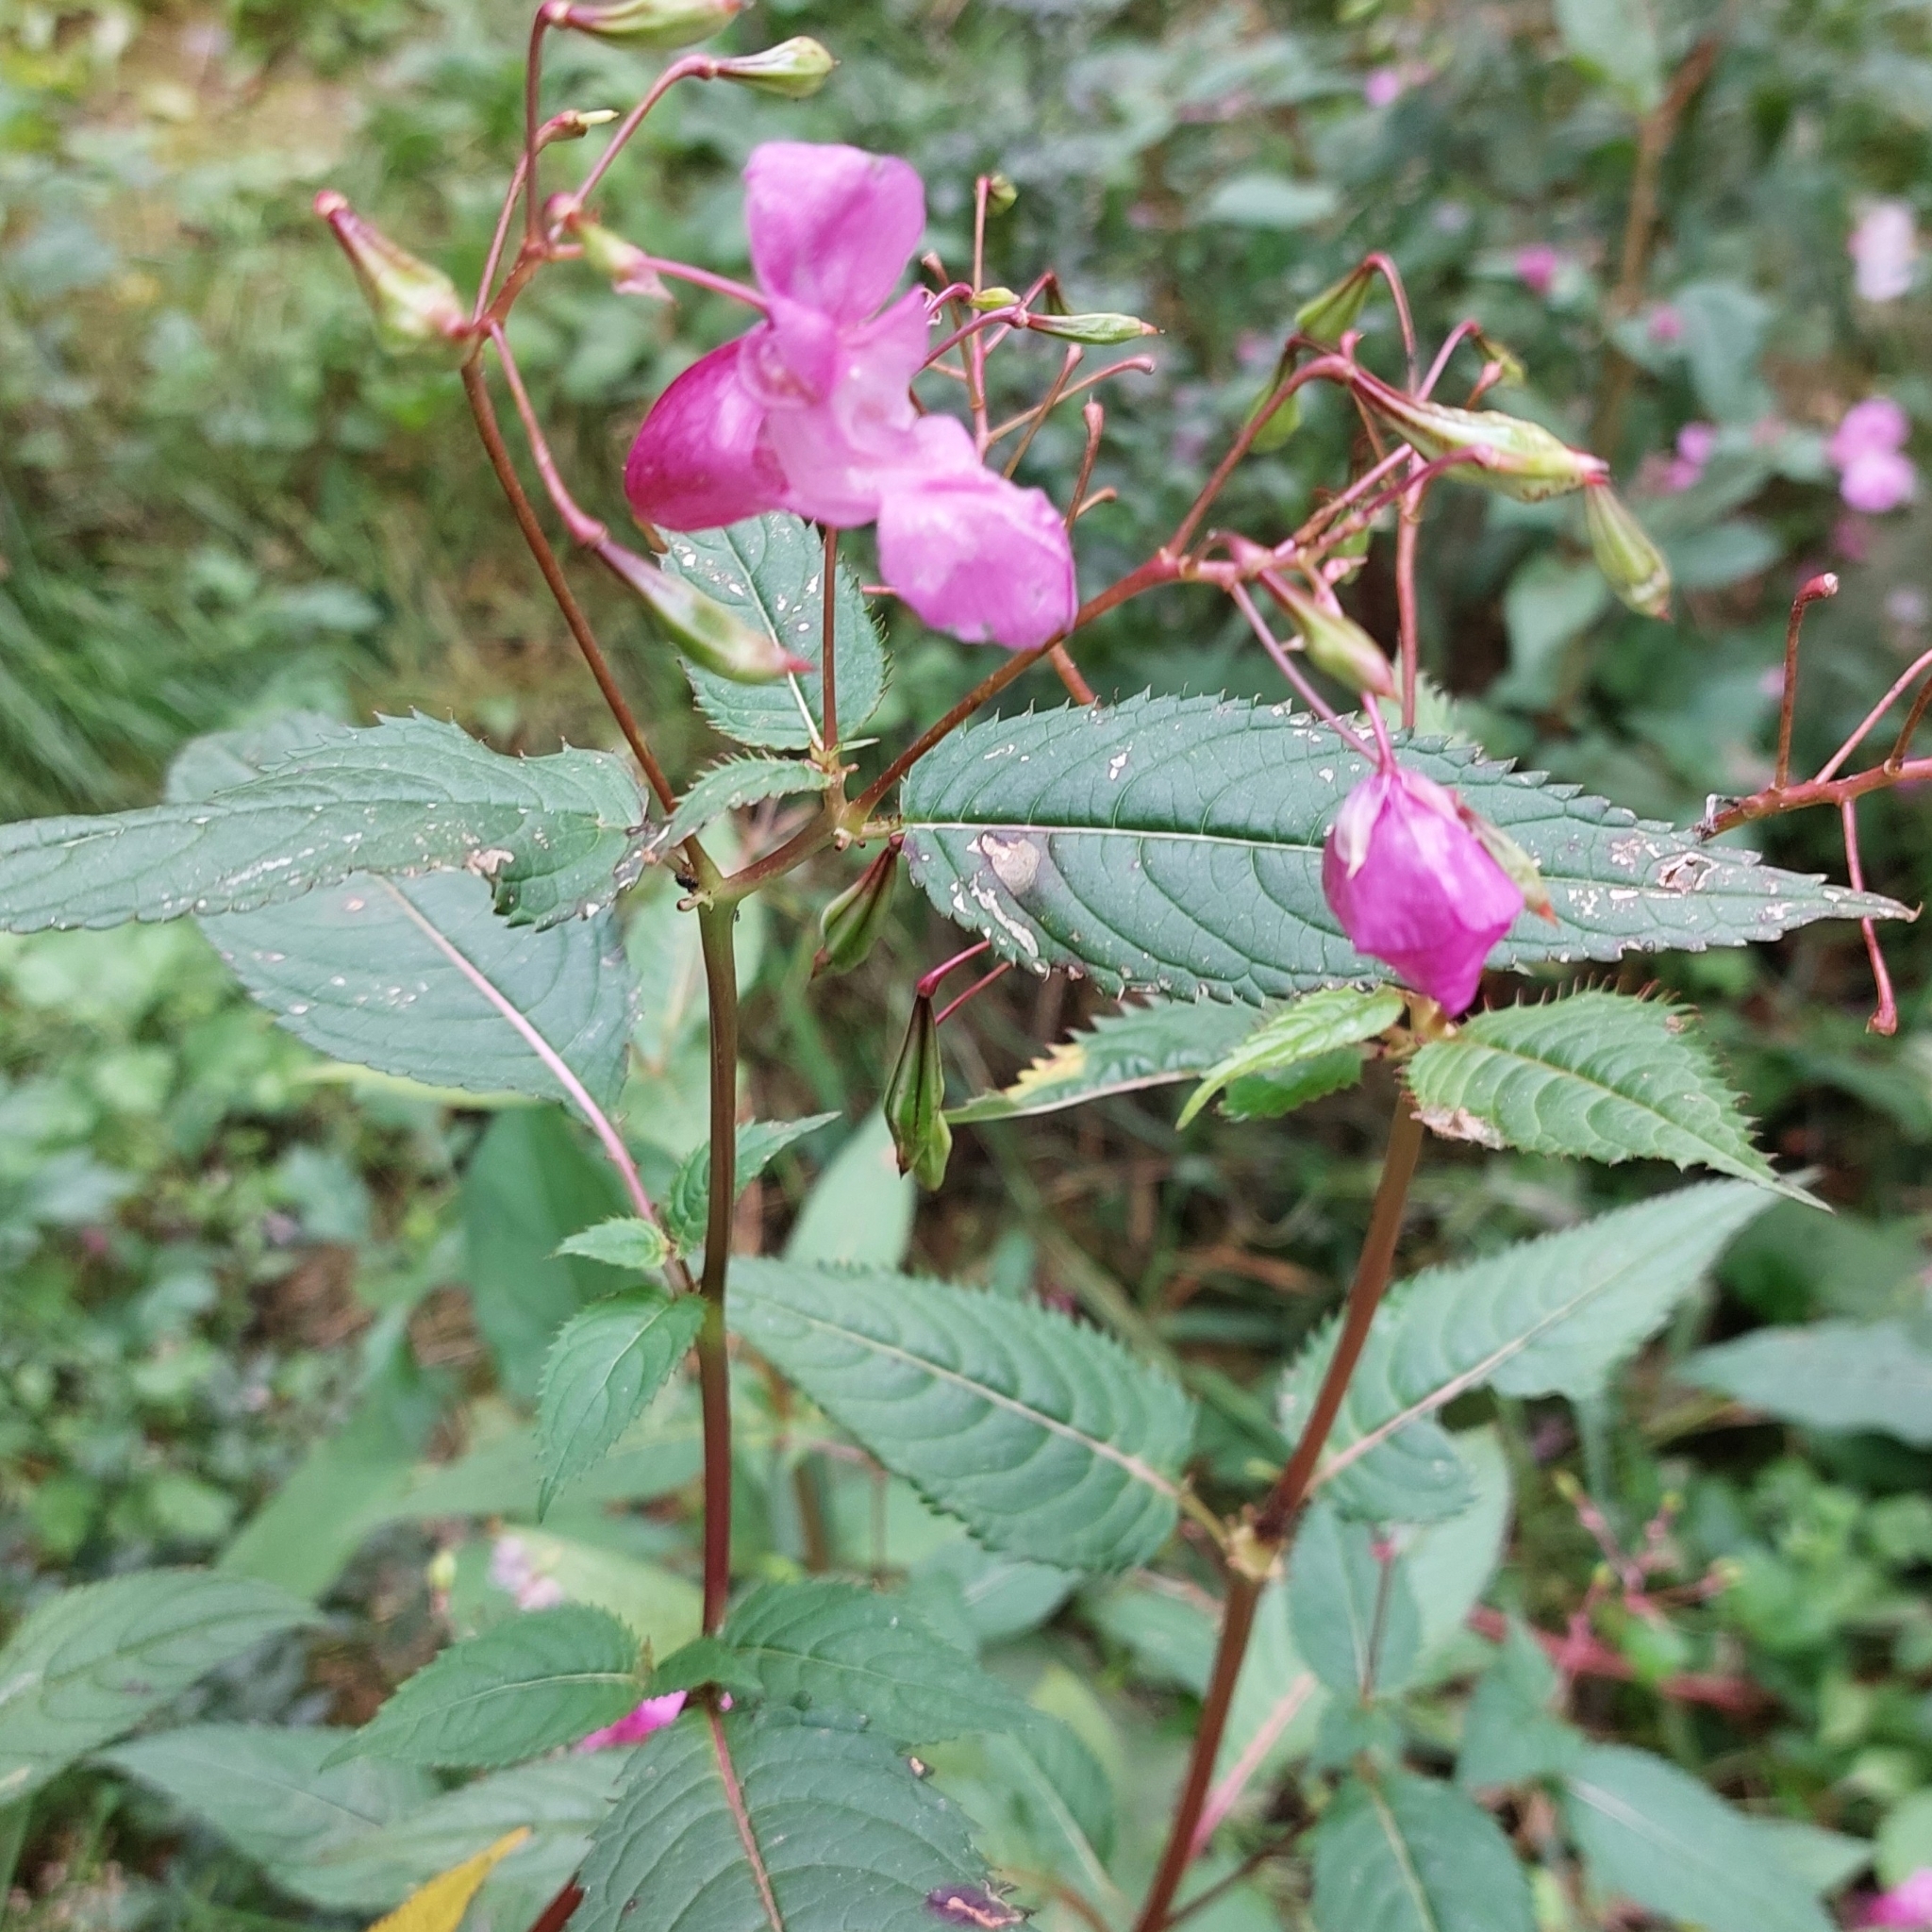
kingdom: Plantae
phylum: Tracheophyta
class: Magnoliopsida
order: Ericales
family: Balsaminaceae
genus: Impatiens
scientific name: Impatiens glandulifera
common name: Himalayan balsam
